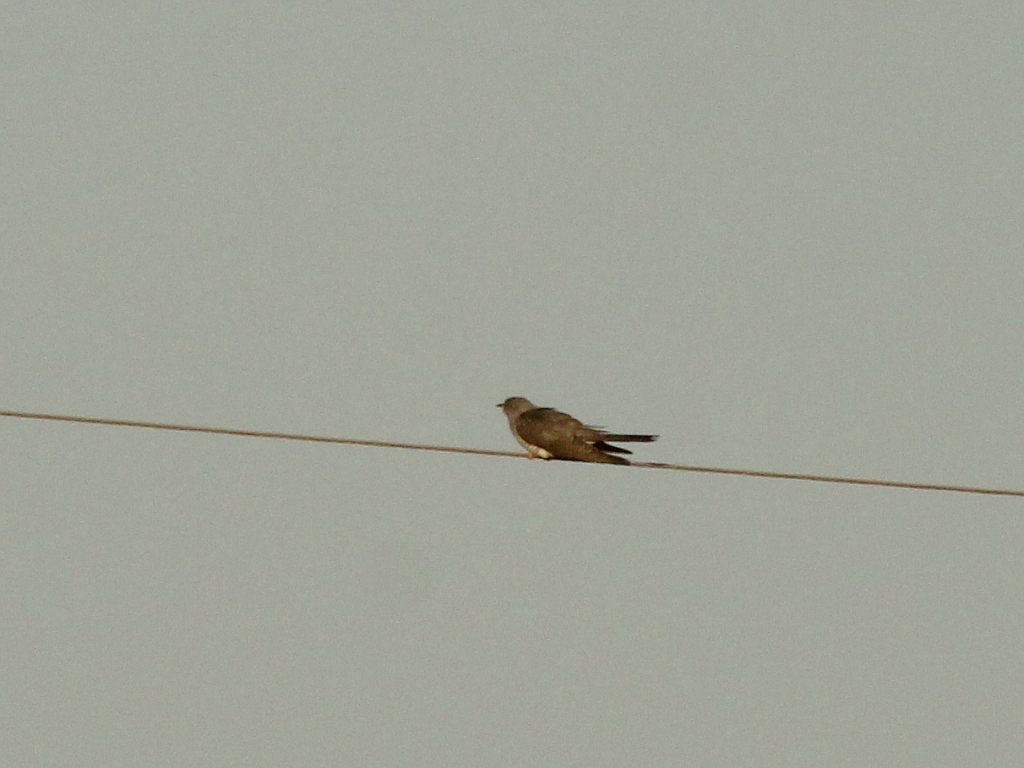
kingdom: Animalia
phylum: Chordata
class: Aves
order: Cuculiformes
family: Cuculidae
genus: Cuculus
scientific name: Cuculus canorus
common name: Common cuckoo
